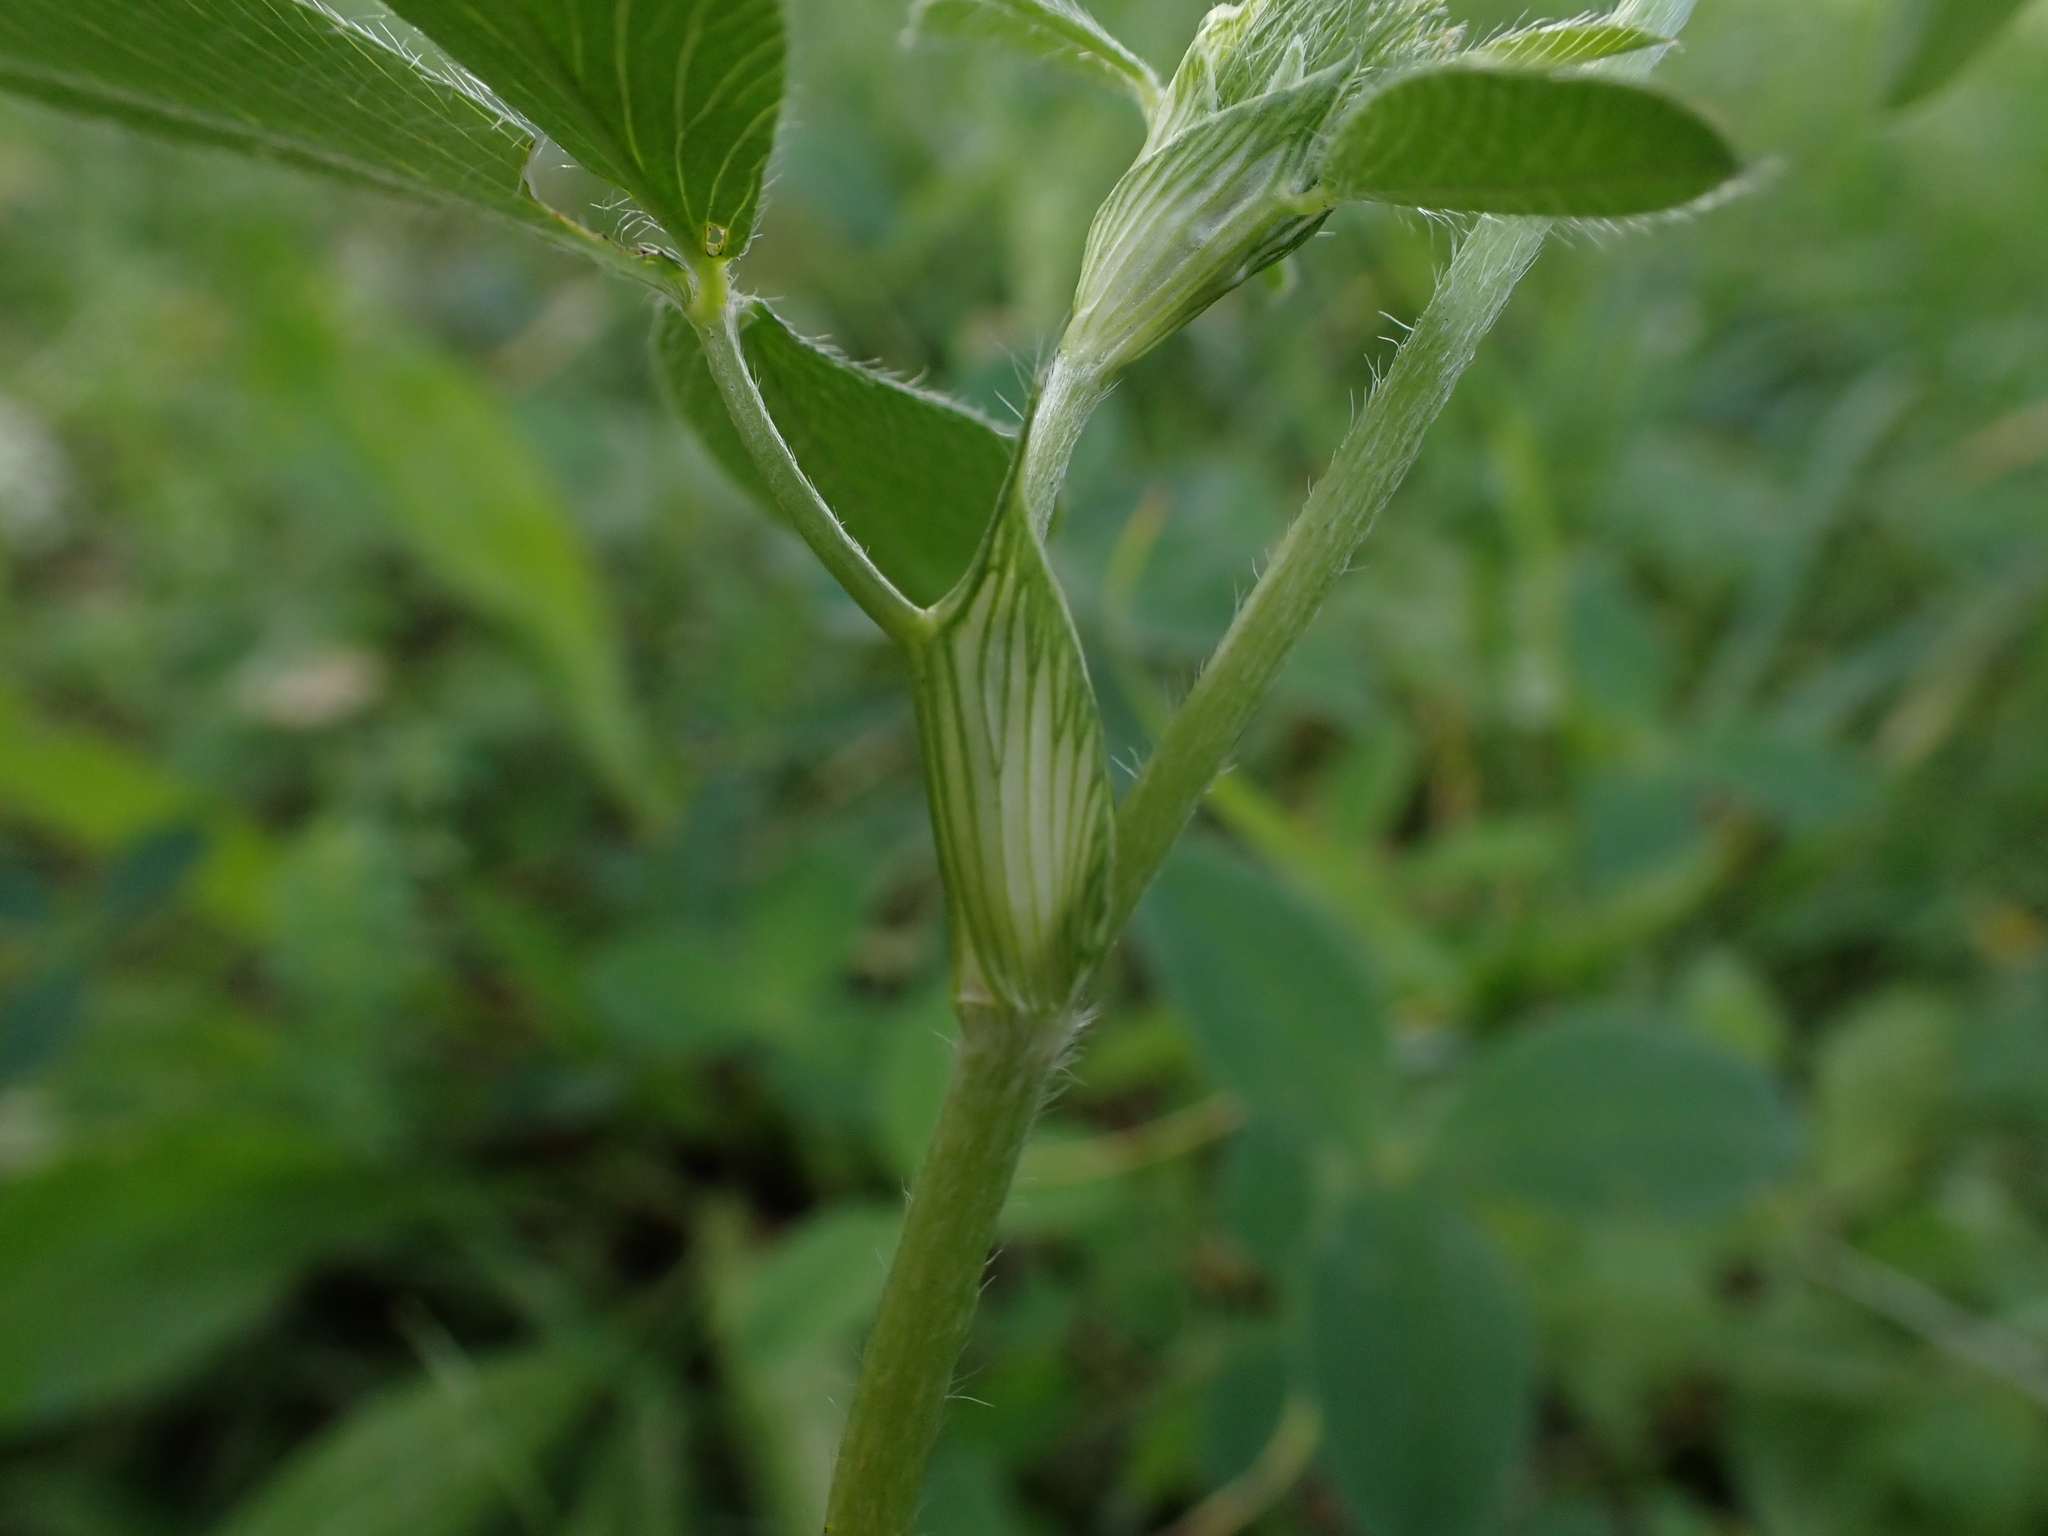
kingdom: Plantae
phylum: Tracheophyta
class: Magnoliopsida
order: Fabales
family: Fabaceae
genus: Trifolium
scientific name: Trifolium pratense
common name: Red clover
